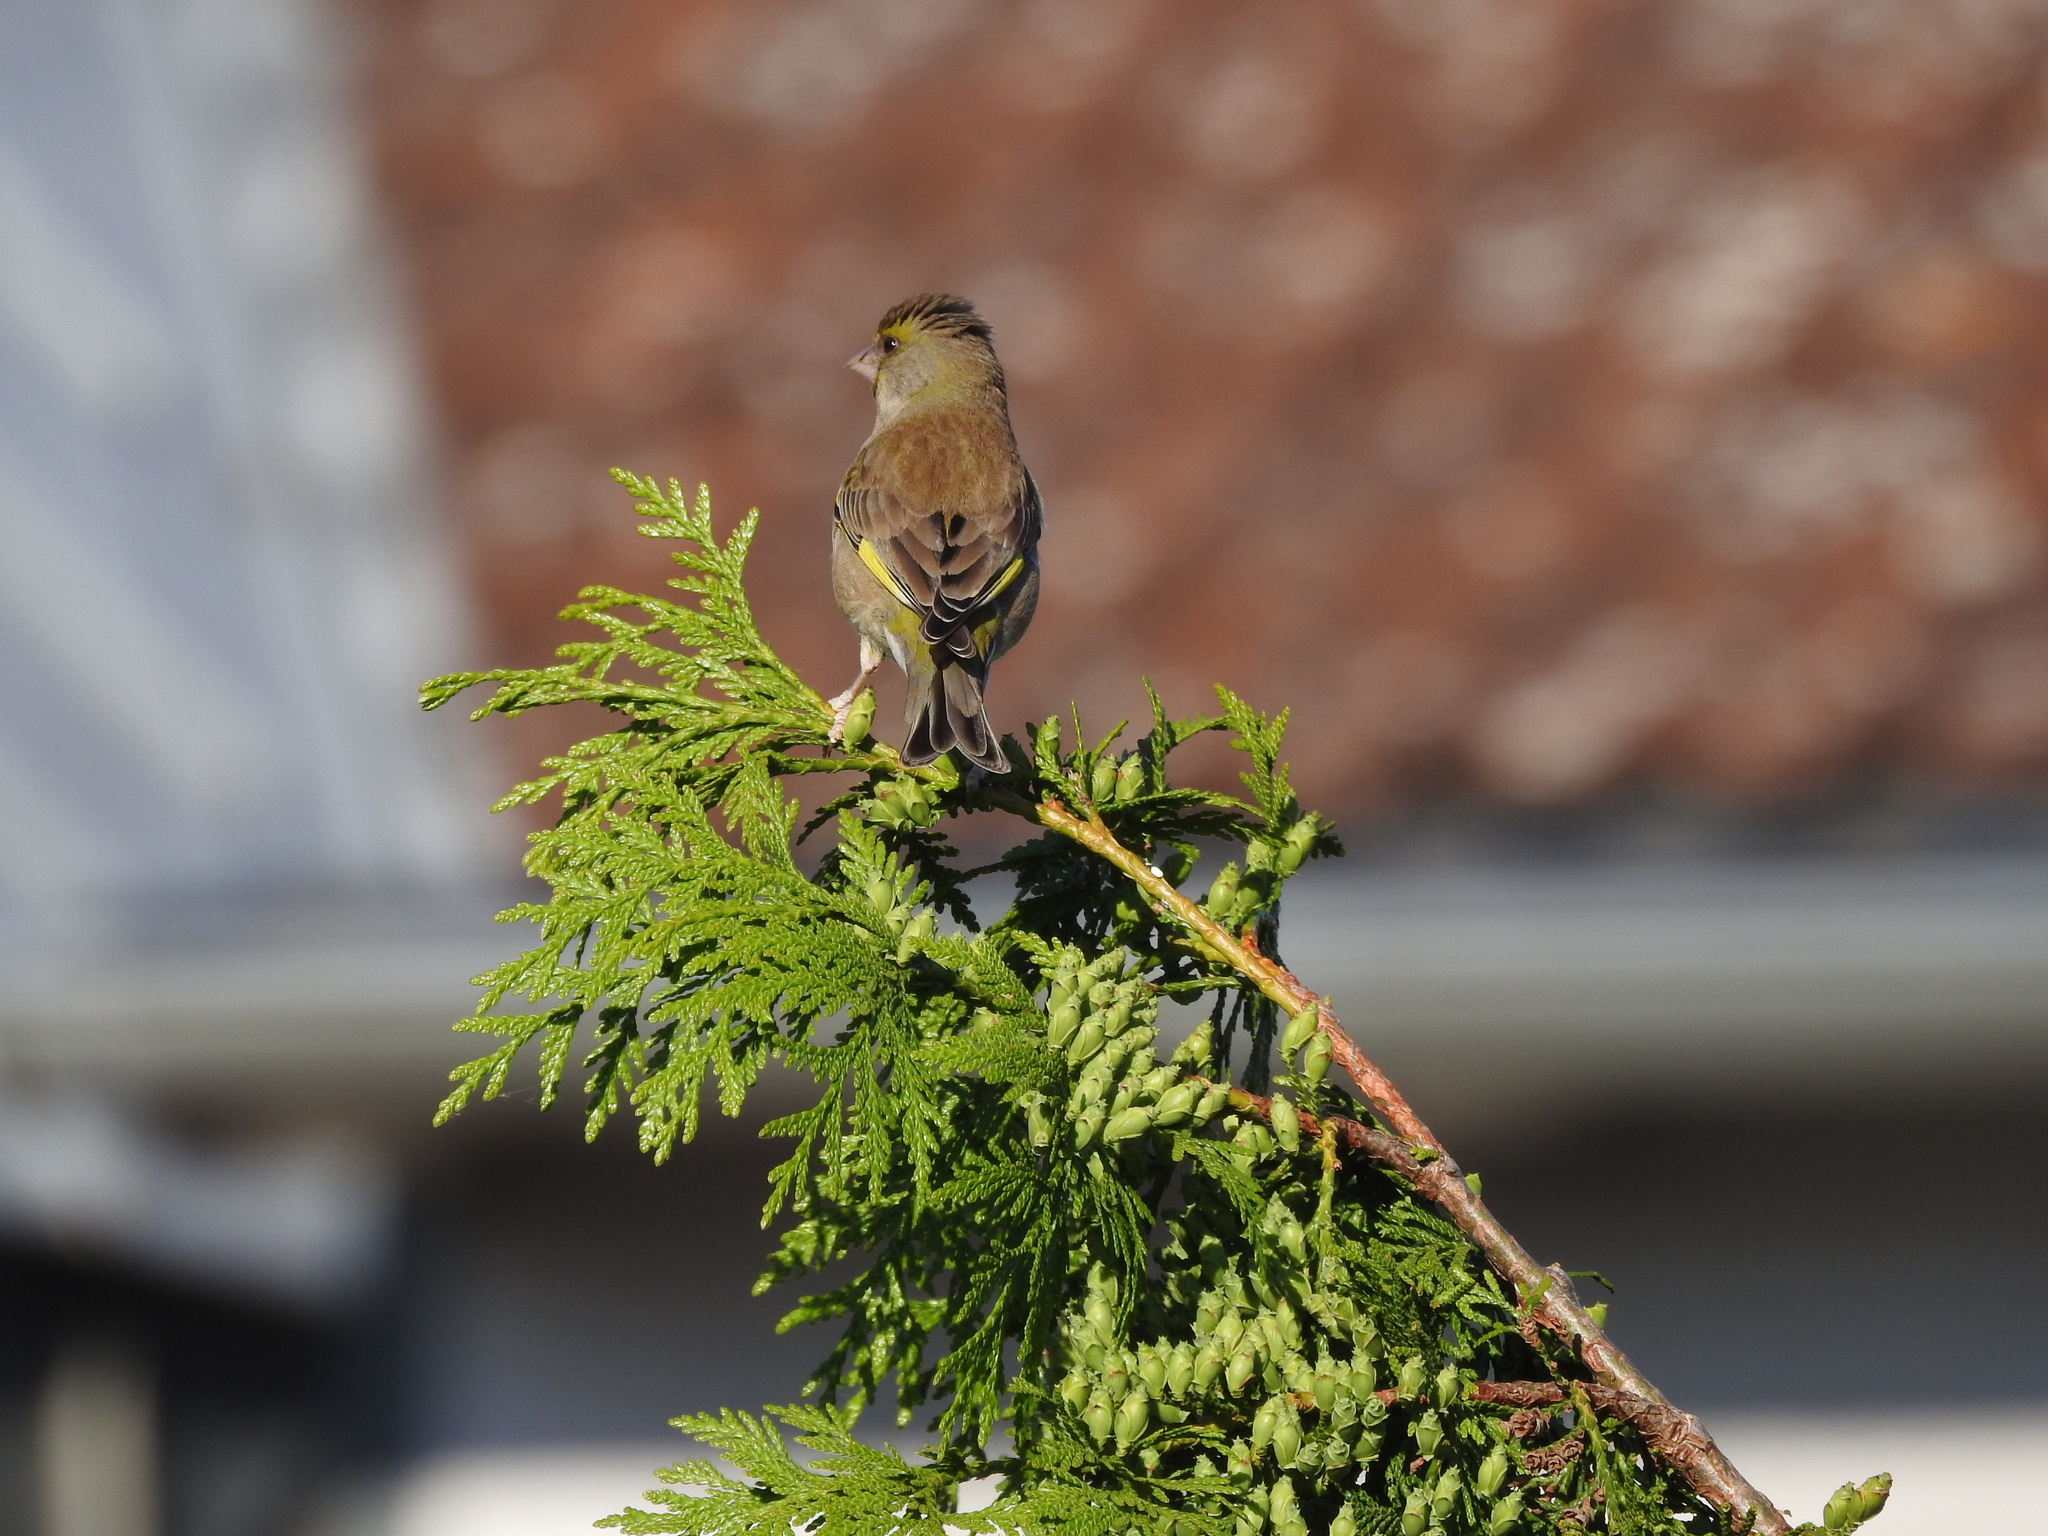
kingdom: Plantae
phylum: Tracheophyta
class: Liliopsida
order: Poales
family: Poaceae
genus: Chloris
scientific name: Chloris chloris
